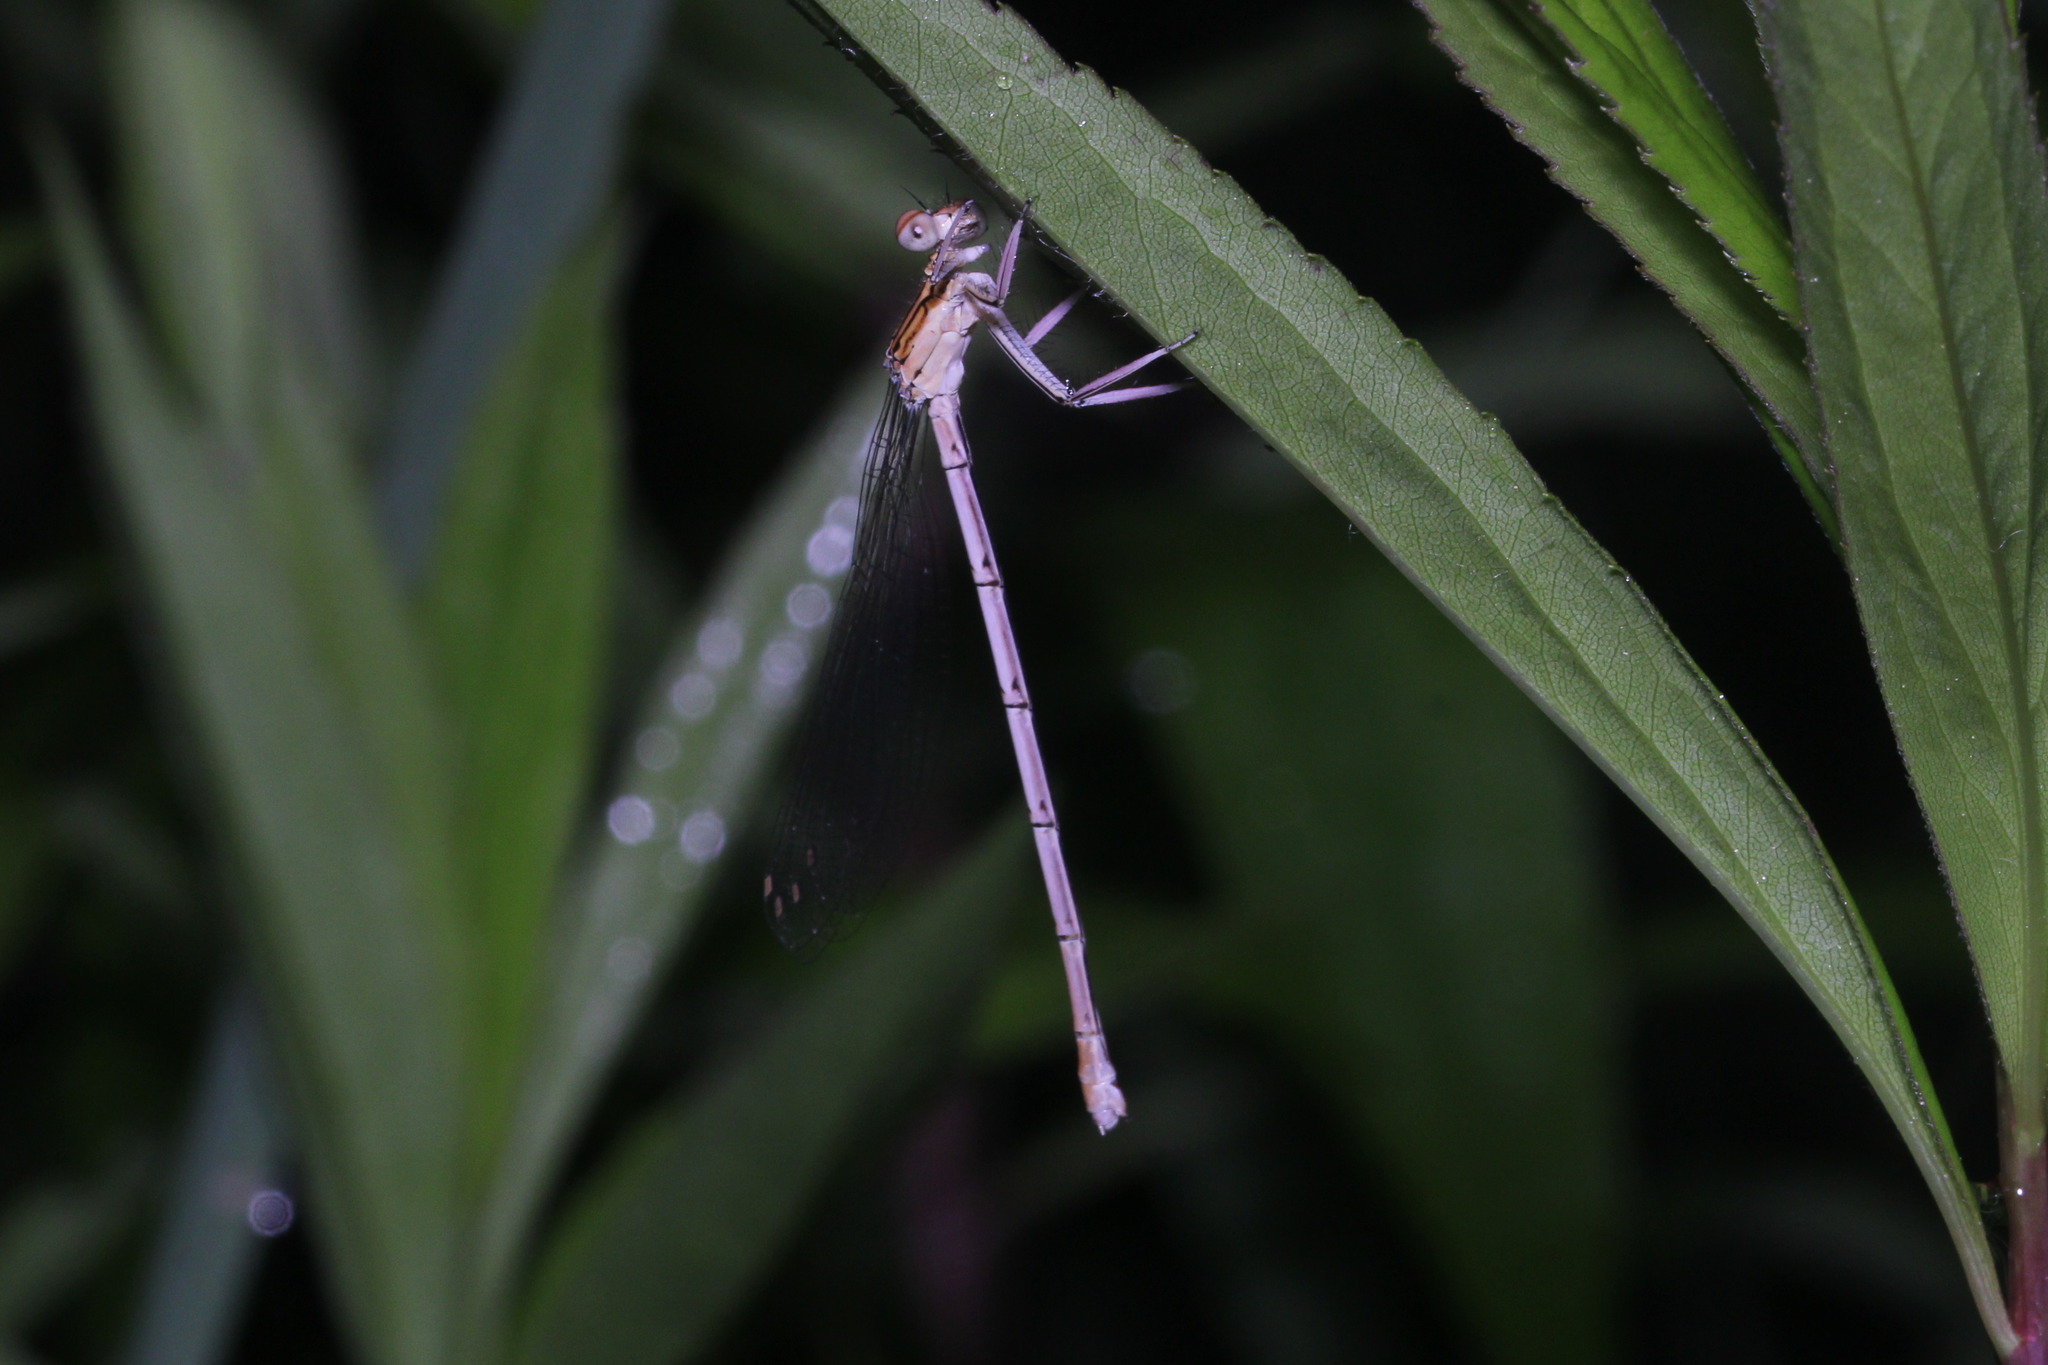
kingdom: Animalia
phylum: Arthropoda
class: Insecta
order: Odonata
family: Platycnemididae
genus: Platycnemis
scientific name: Platycnemis pennipes
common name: White-legged damselfly
